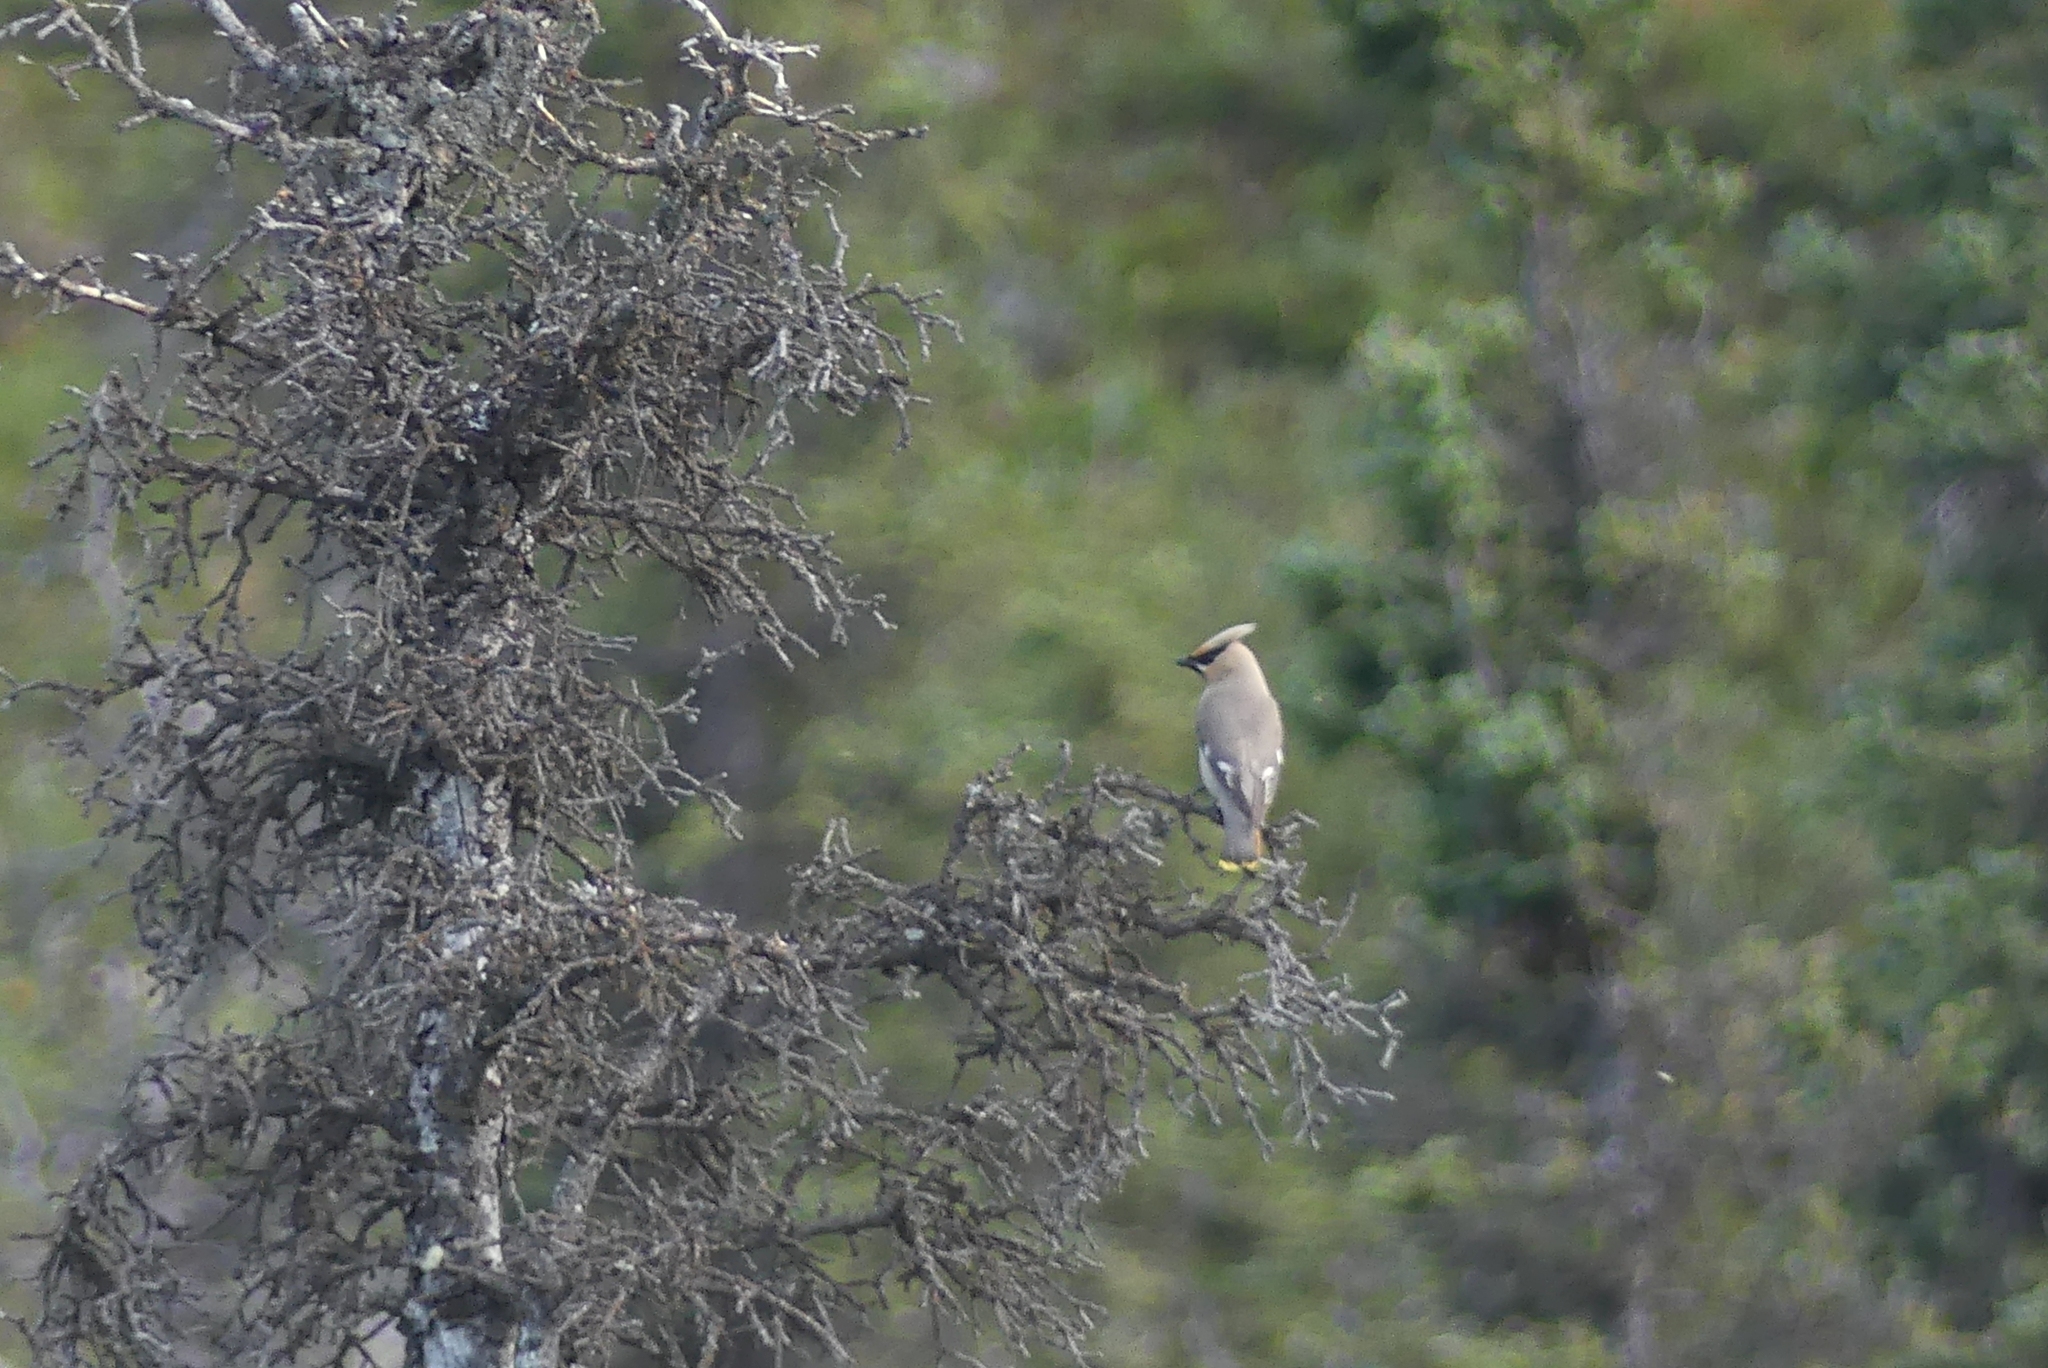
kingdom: Animalia
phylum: Chordata
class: Aves
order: Passeriformes
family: Bombycillidae
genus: Bombycilla
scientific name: Bombycilla garrulus
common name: Bohemian waxwing
